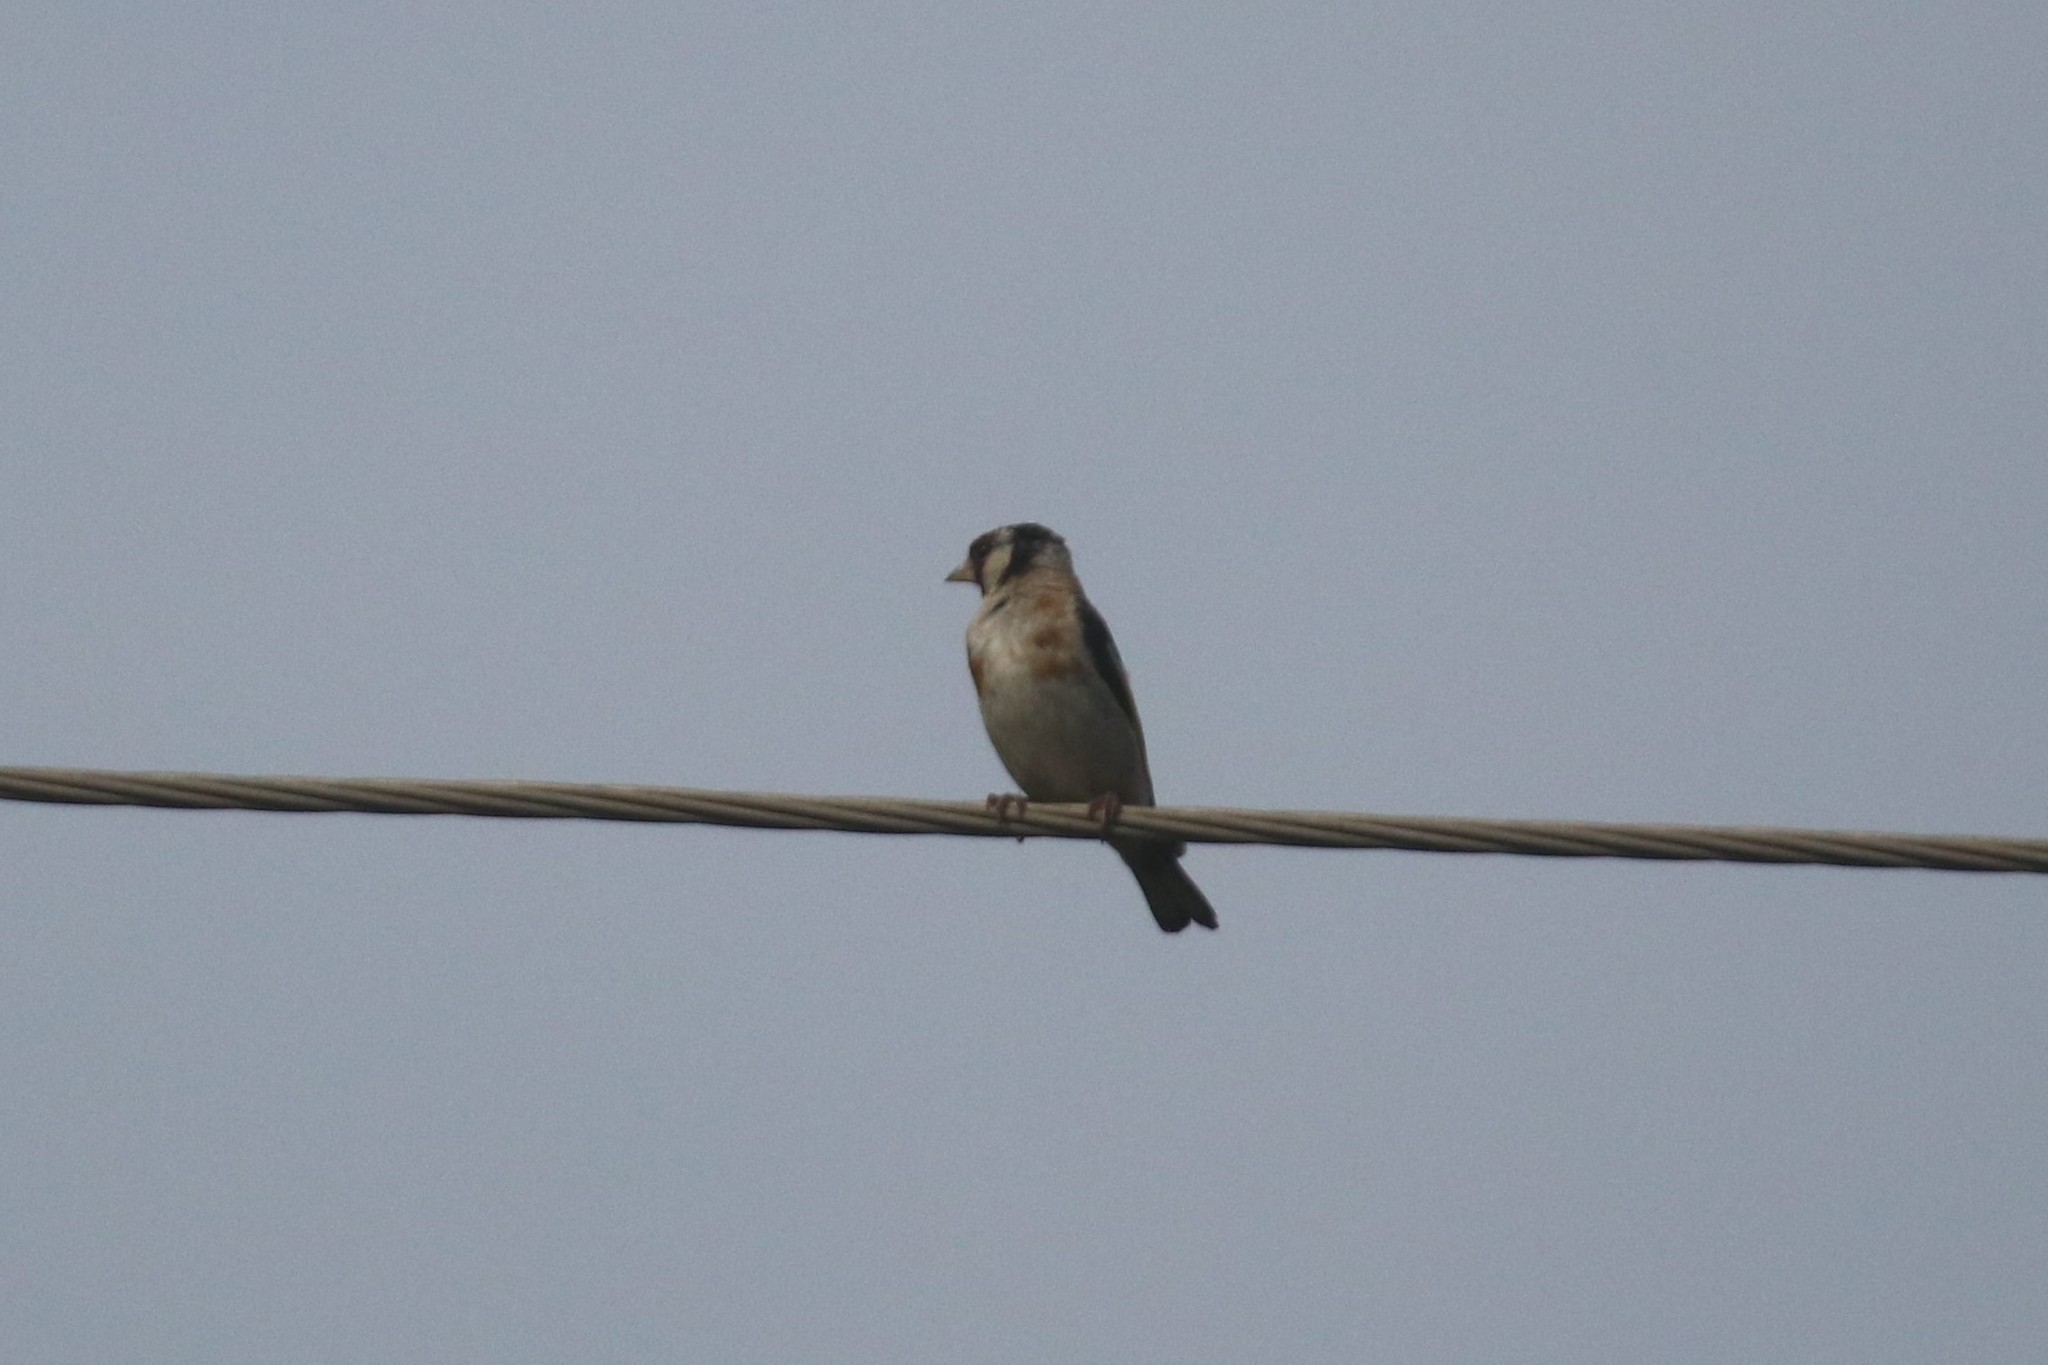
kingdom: Animalia
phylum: Chordata
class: Aves
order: Passeriformes
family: Fringillidae
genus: Carduelis
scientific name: Carduelis carduelis
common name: European goldfinch
